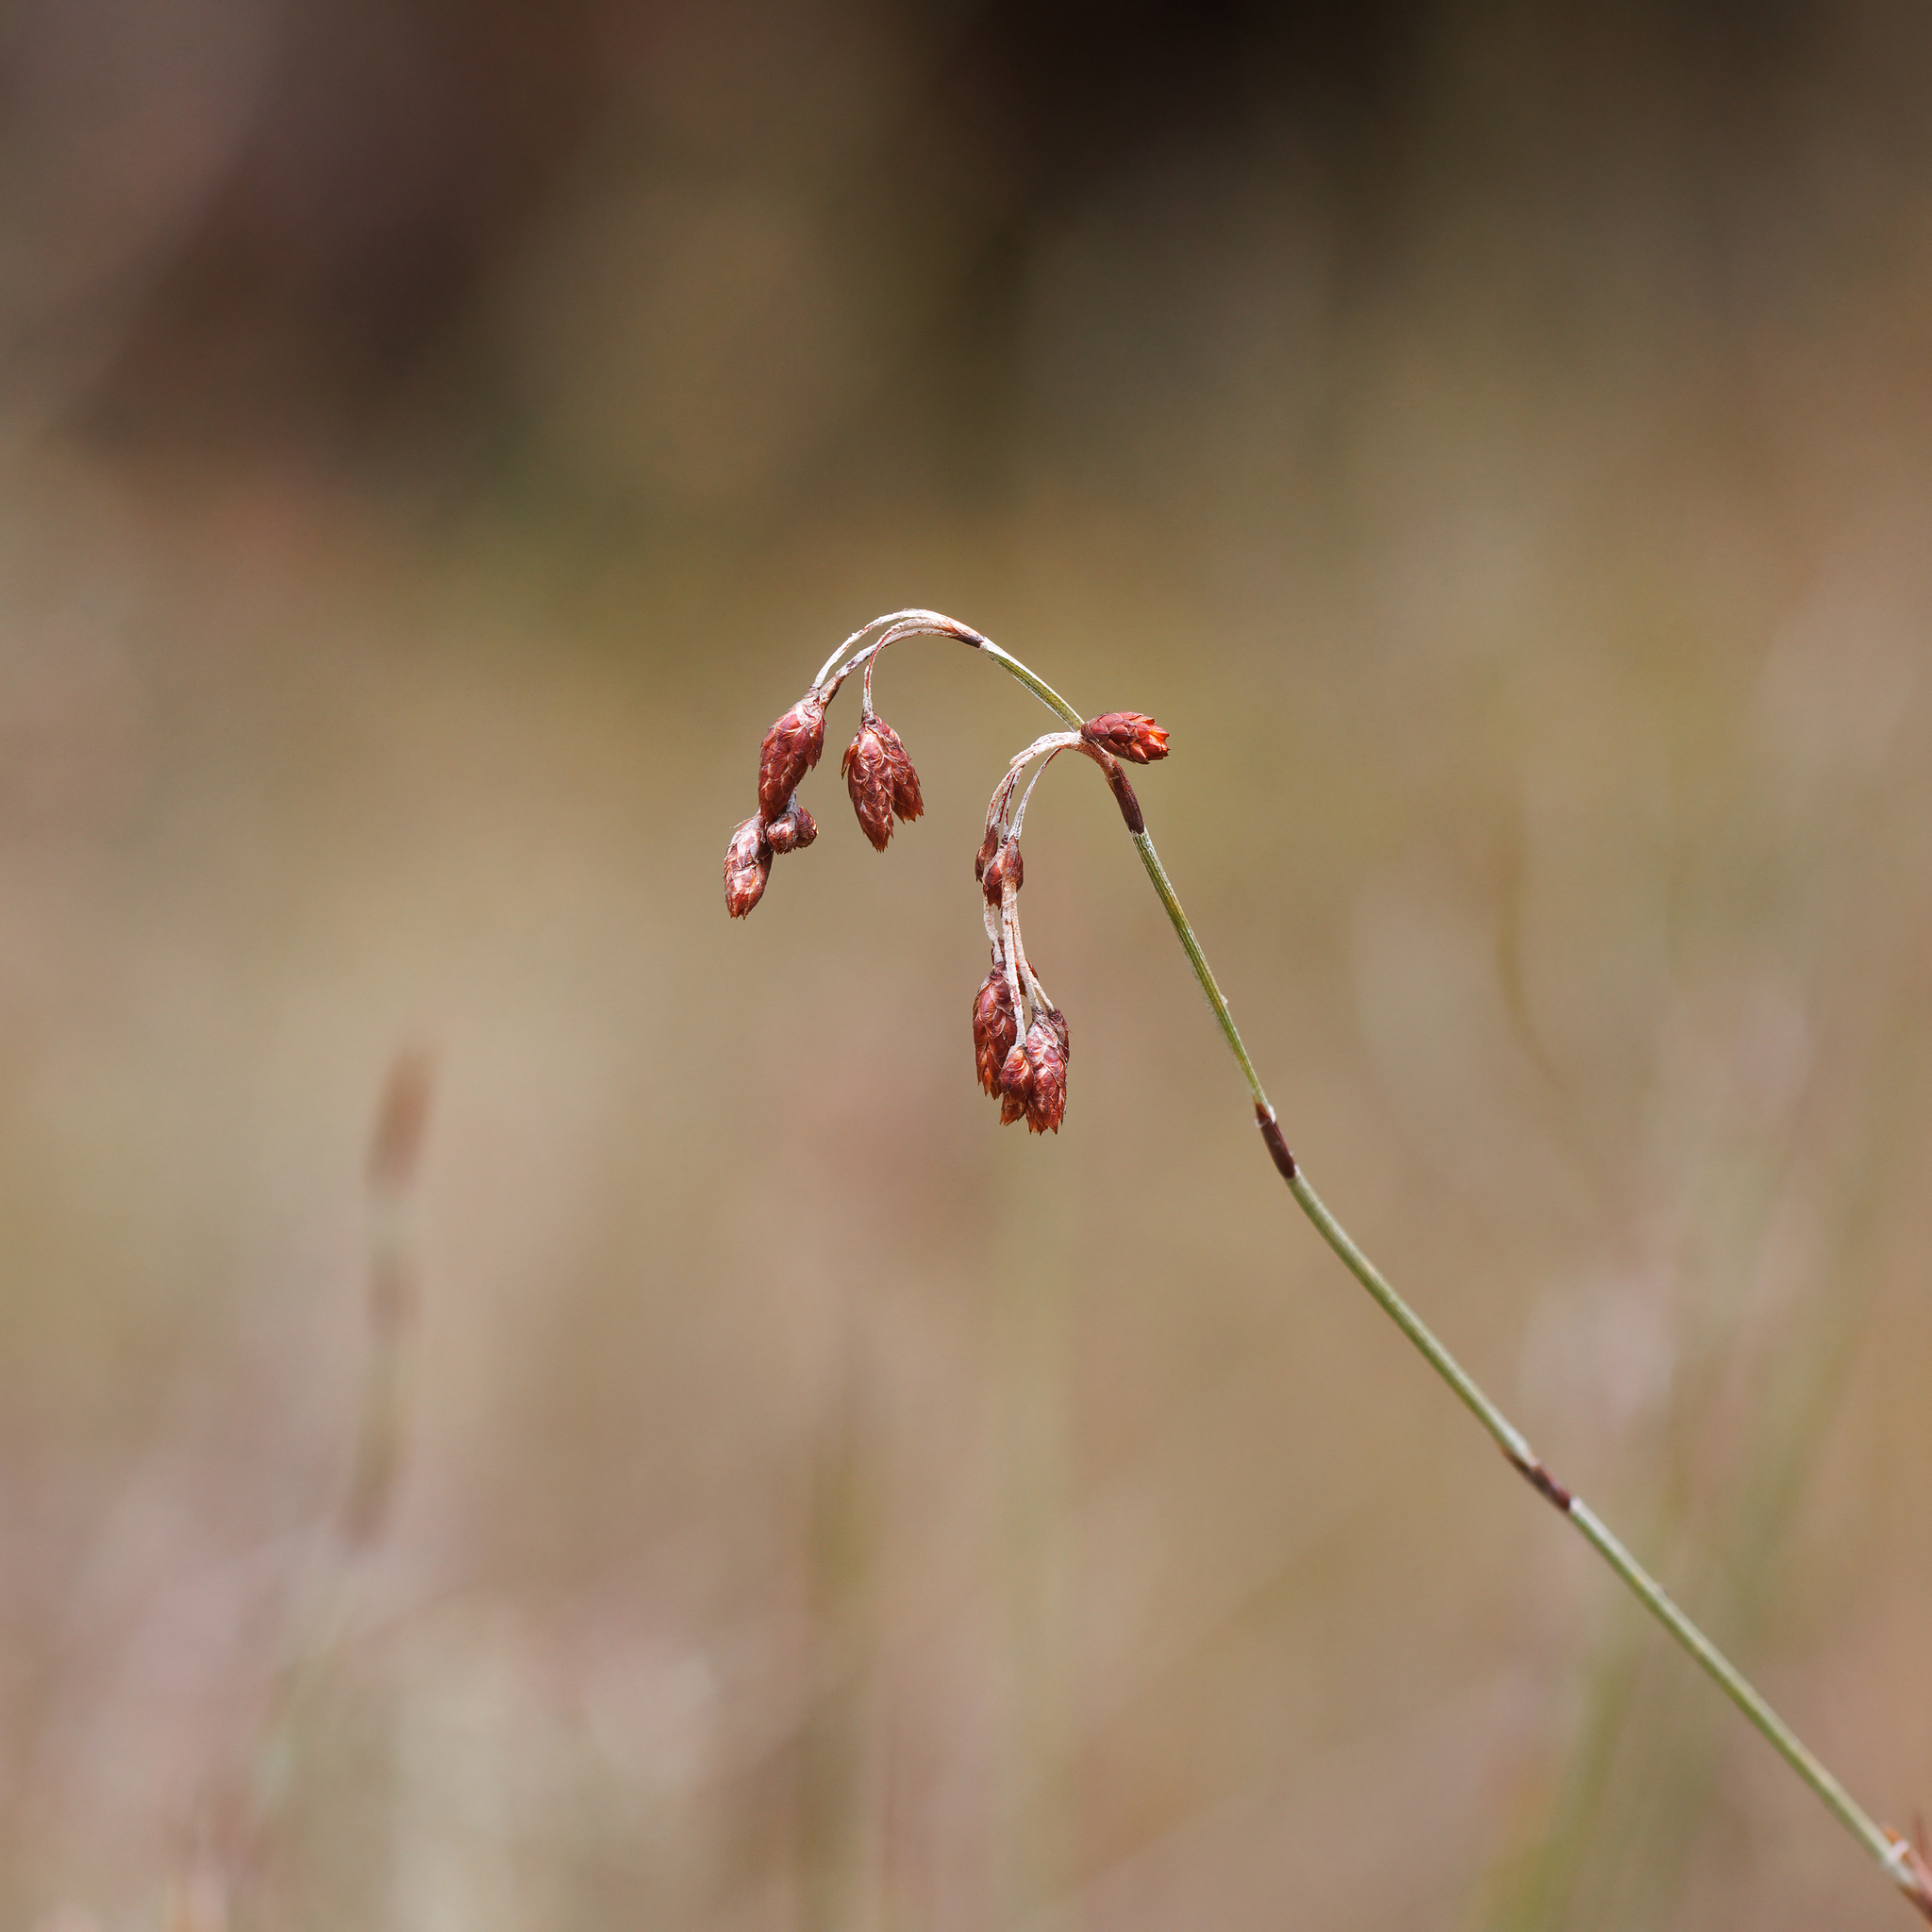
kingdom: Plantae
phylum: Tracheophyta
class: Liliopsida
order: Poales
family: Restionaceae
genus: Hypolaena
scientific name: Hypolaena fastigiata
